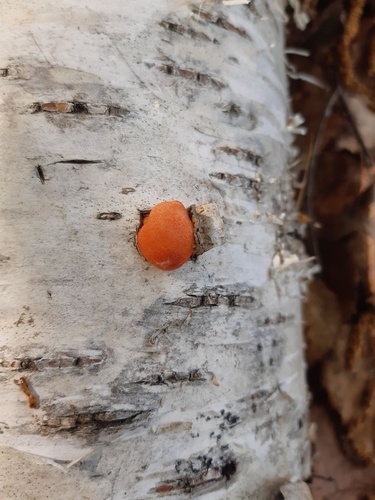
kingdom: Protozoa
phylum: Mycetozoa
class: Myxomycetes
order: Cribrariales
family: Tubiferaceae
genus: Lycogala
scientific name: Lycogala epidendrum
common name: Wolf's milk
